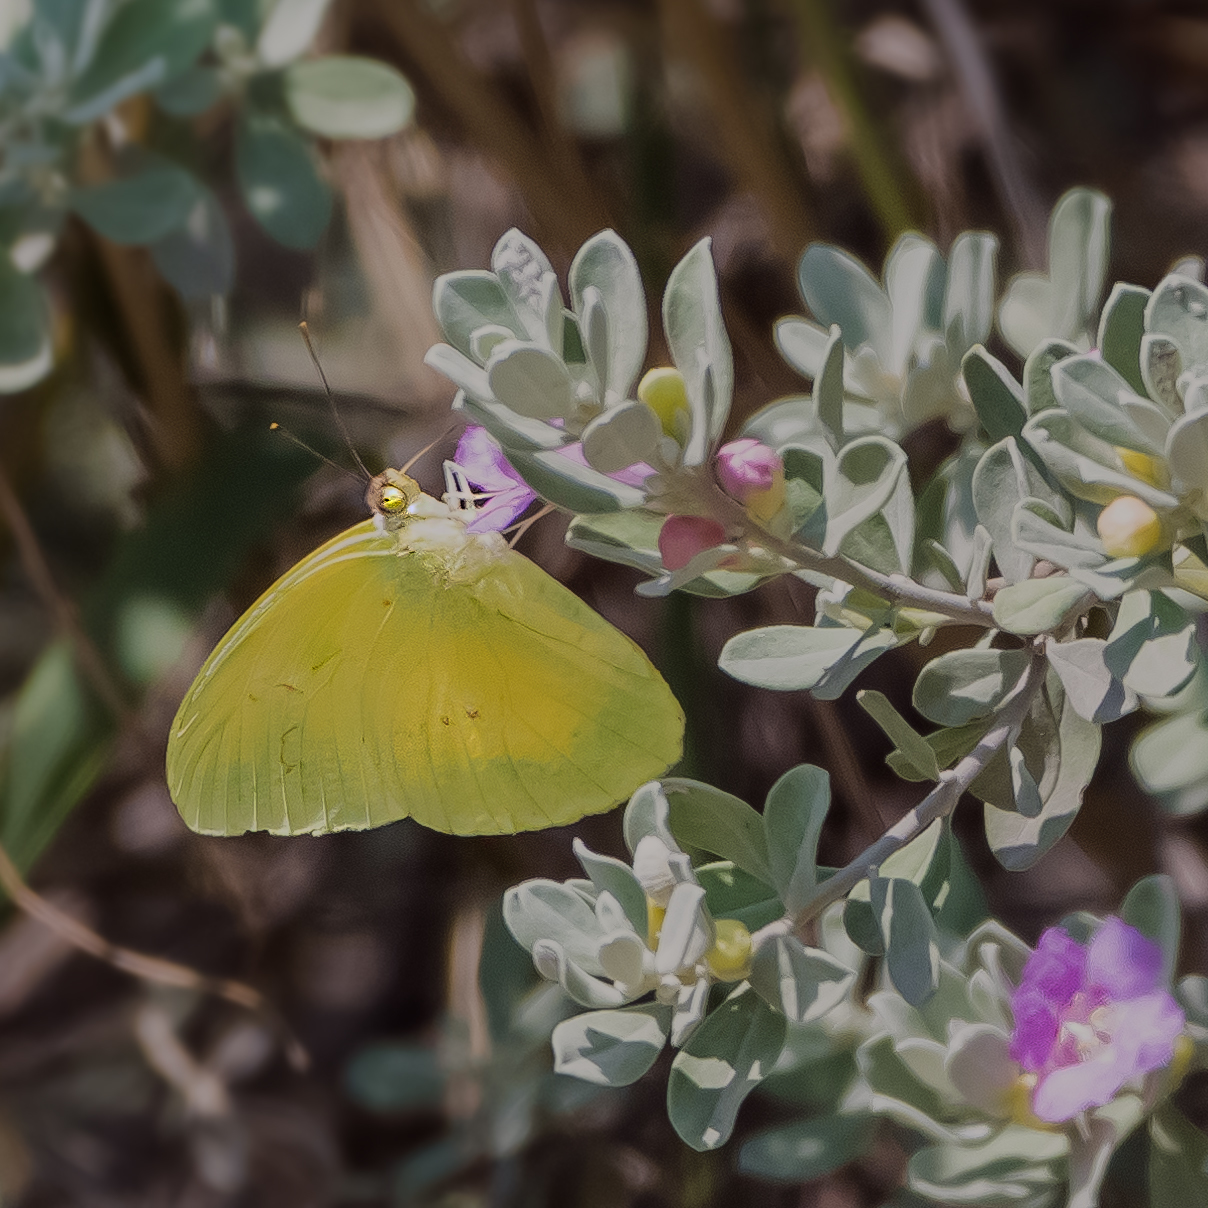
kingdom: Animalia
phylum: Arthropoda
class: Insecta
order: Lepidoptera
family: Pieridae
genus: Phoebis
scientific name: Phoebis marcellina
